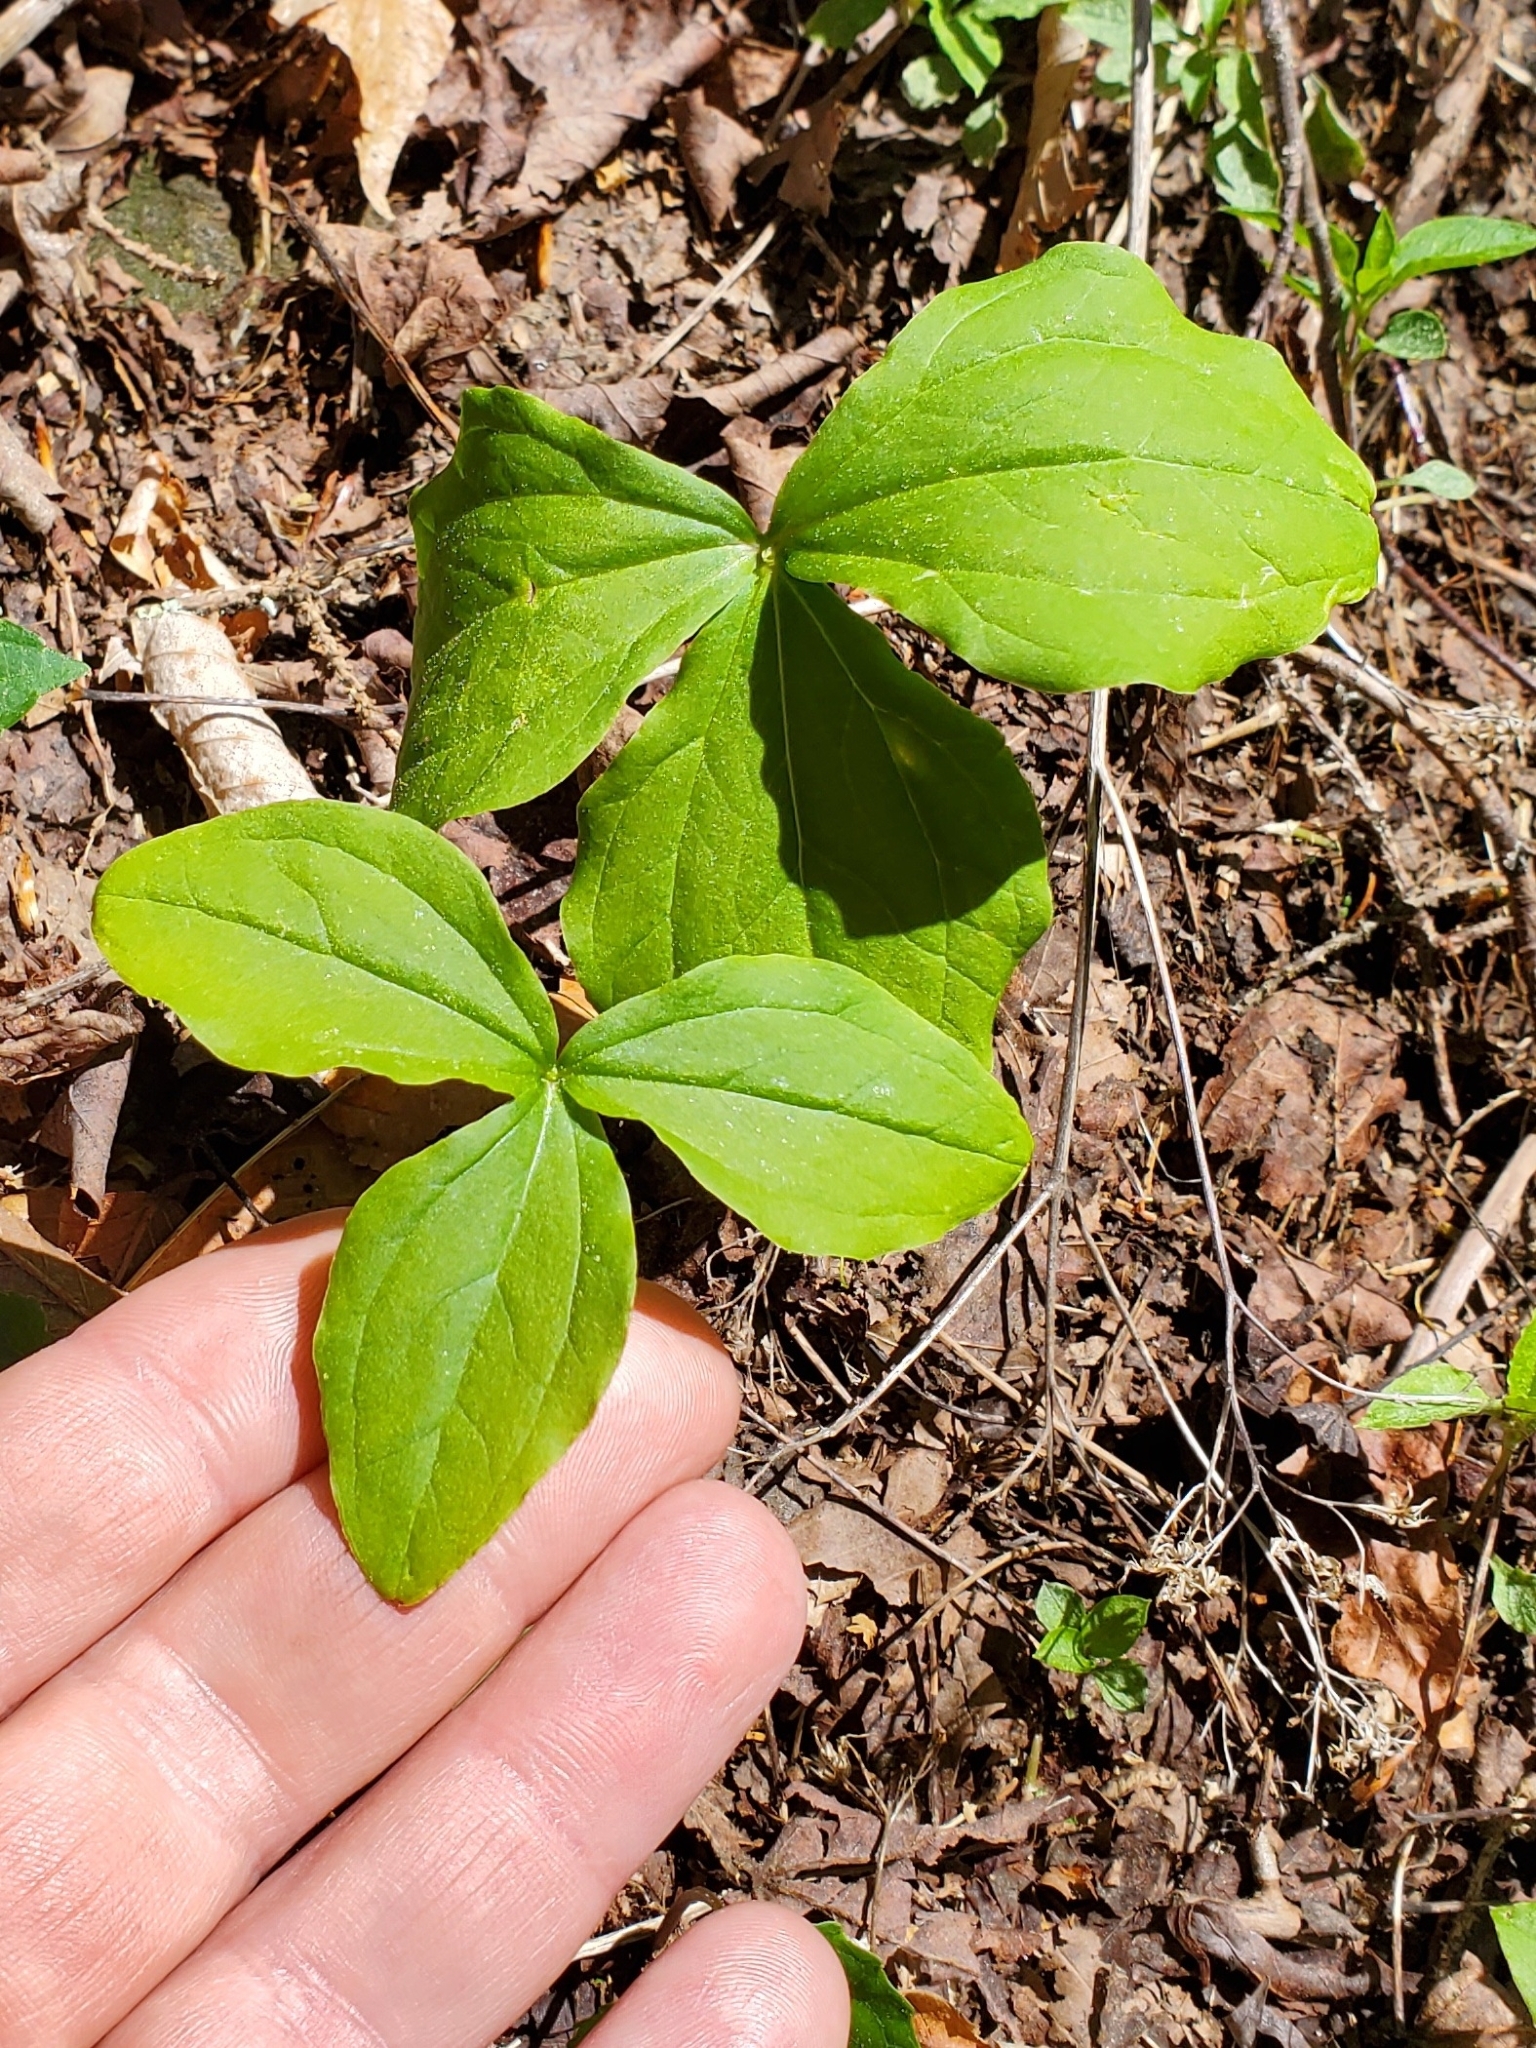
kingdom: Plantae
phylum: Tracheophyta
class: Liliopsida
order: Alismatales
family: Araceae
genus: Arisaema
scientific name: Arisaema triphyllum
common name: Jack-in-the-pulpit
